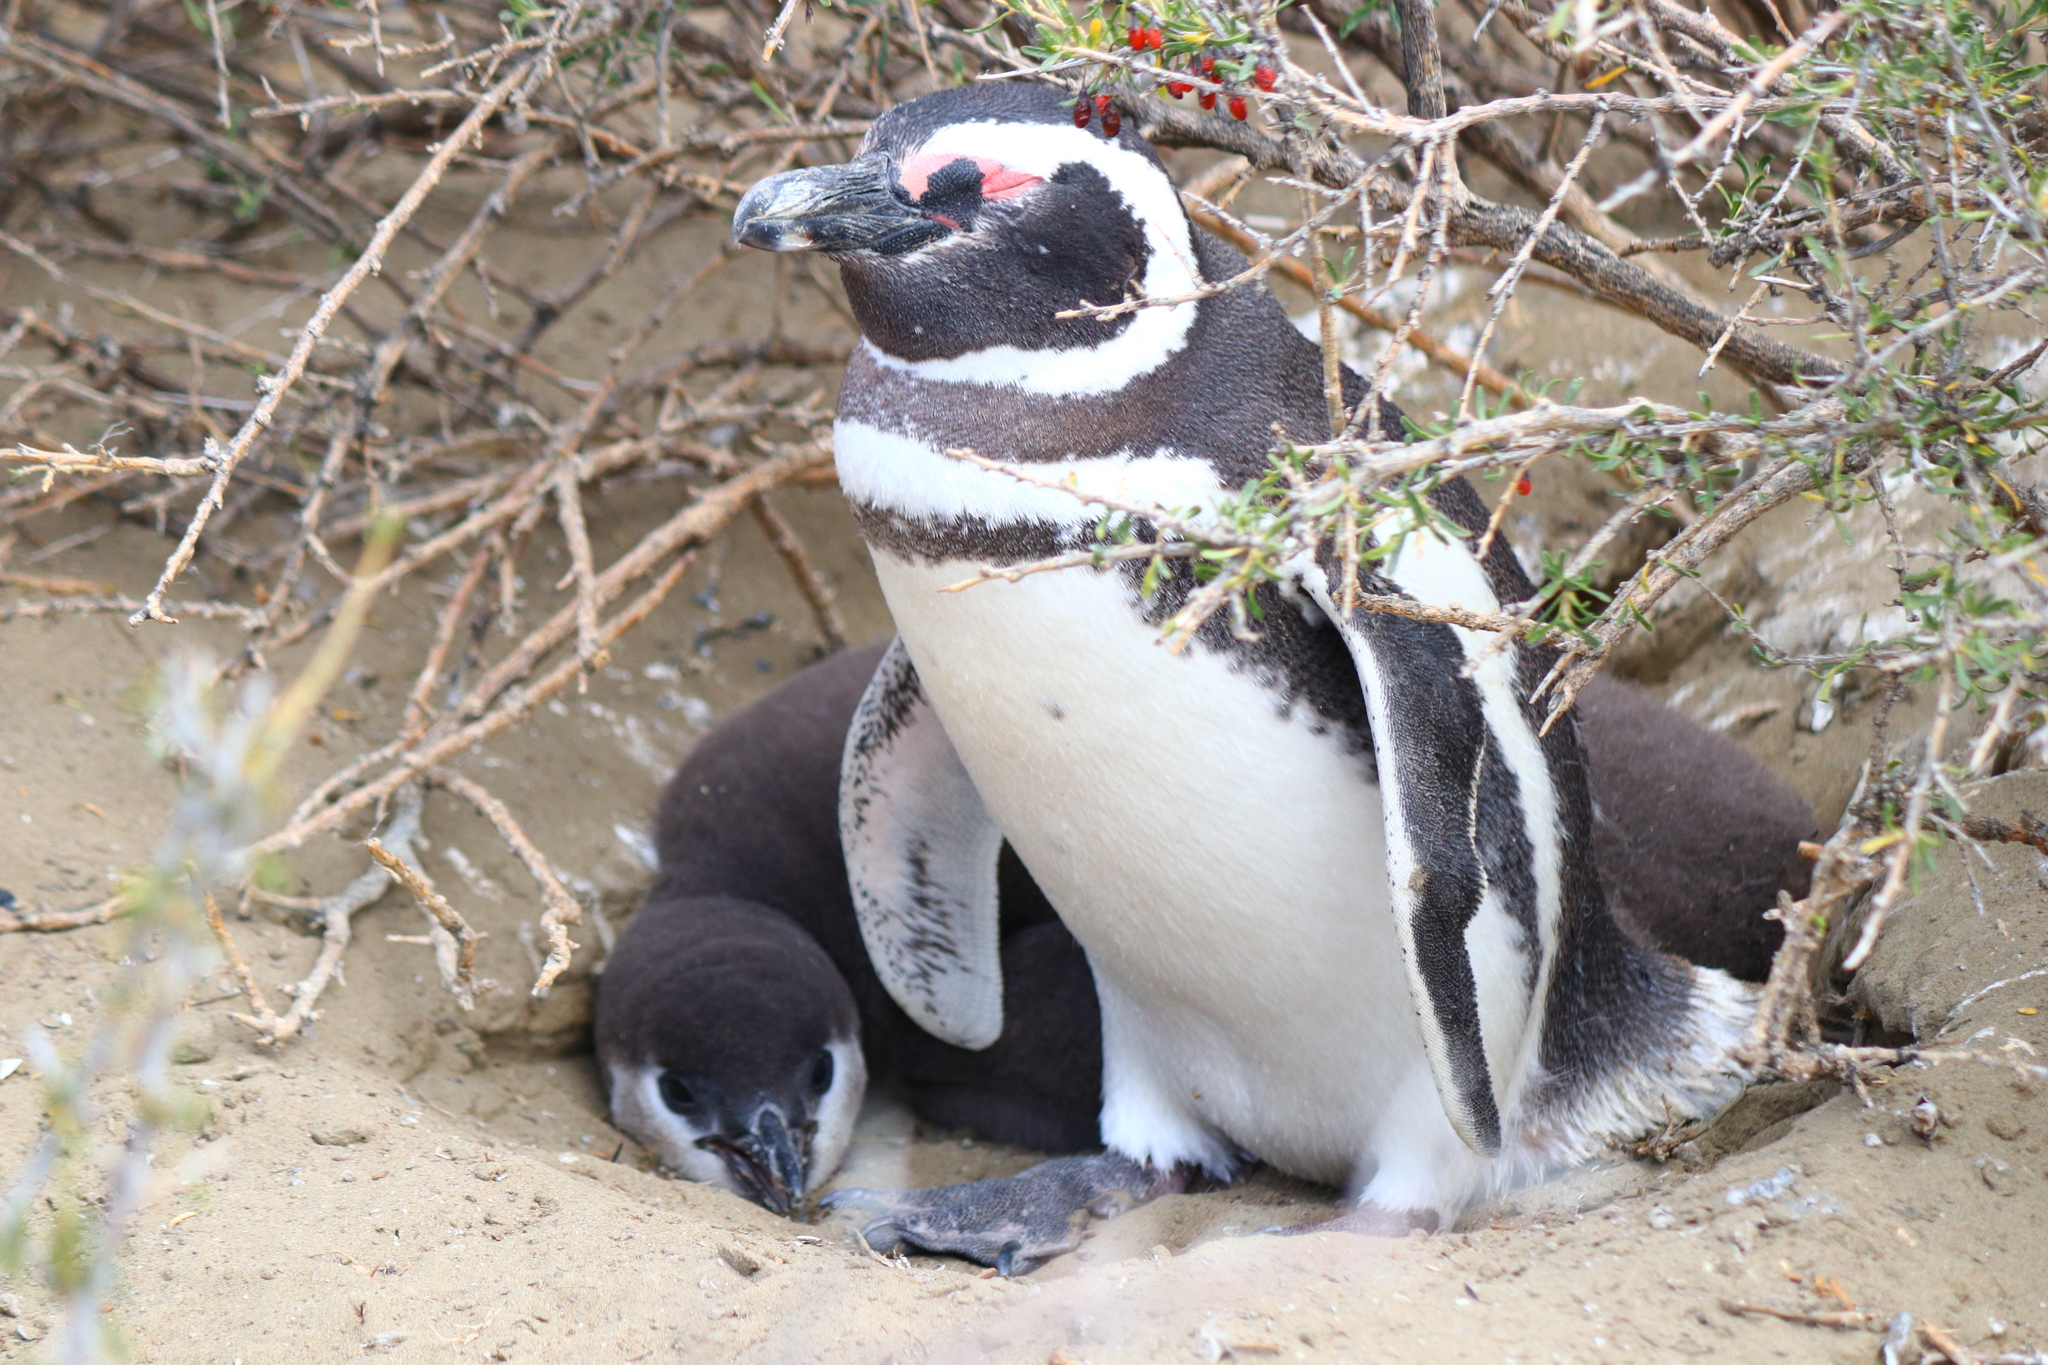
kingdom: Animalia
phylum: Chordata
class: Aves
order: Sphenisciformes
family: Spheniscidae
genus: Spheniscus
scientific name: Spheniscus magellanicus
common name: Magellanic penguin
